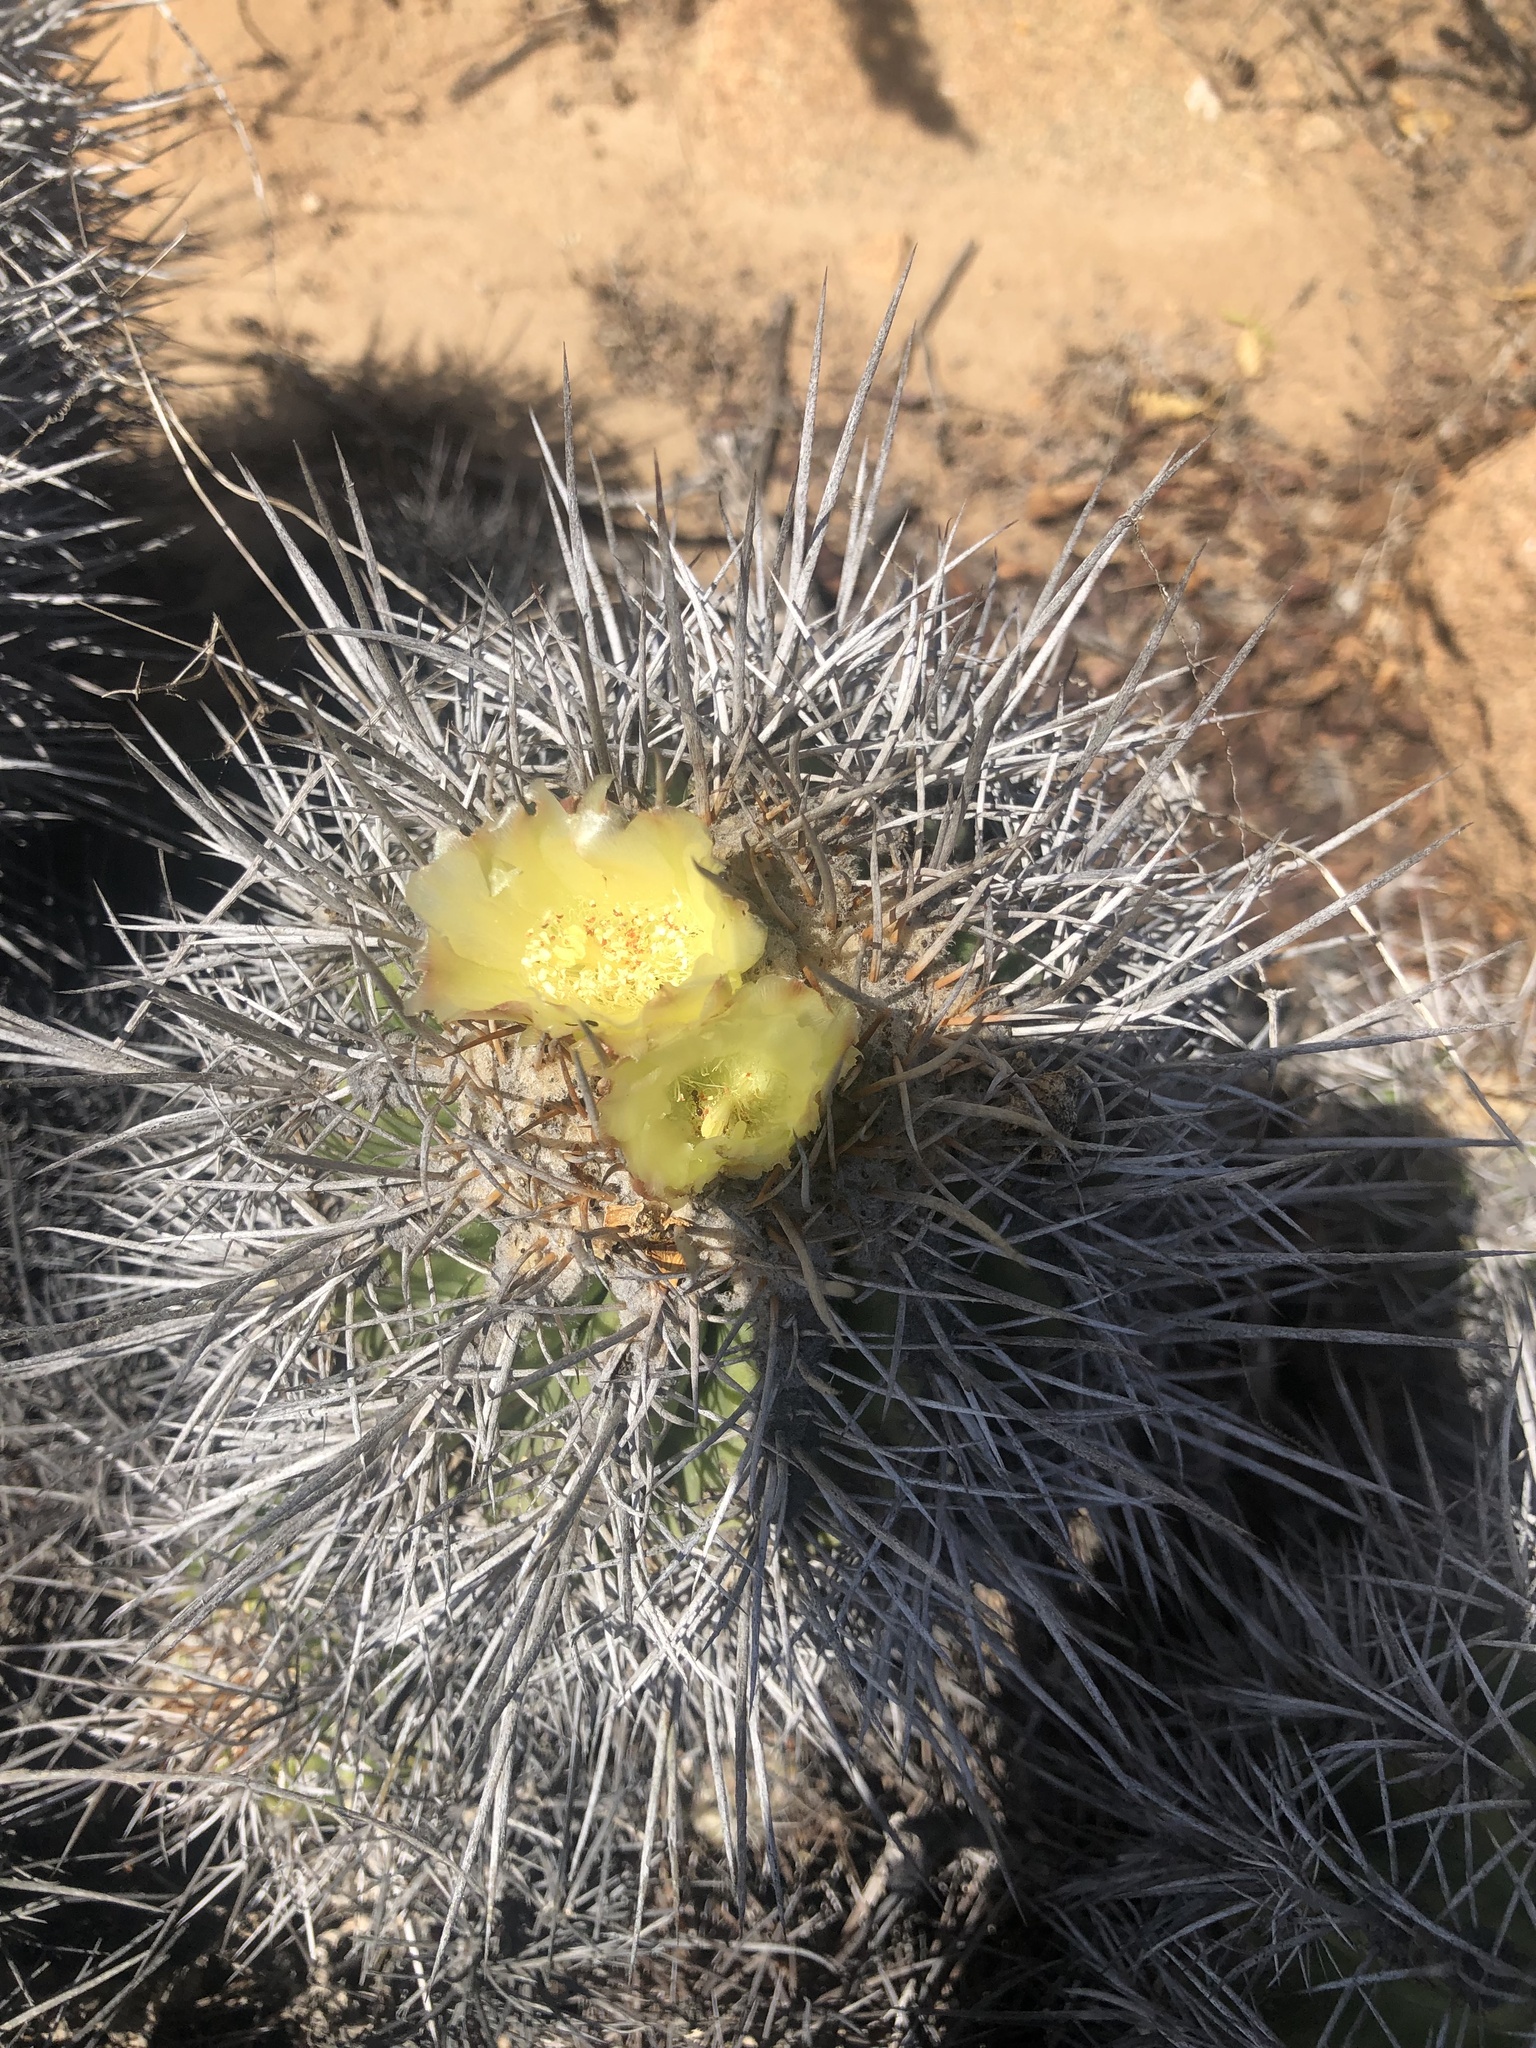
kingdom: Plantae
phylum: Tracheophyta
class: Magnoliopsida
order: Caryophyllales
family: Cactaceae
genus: Copiapoa
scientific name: Copiapoa coquimbana
